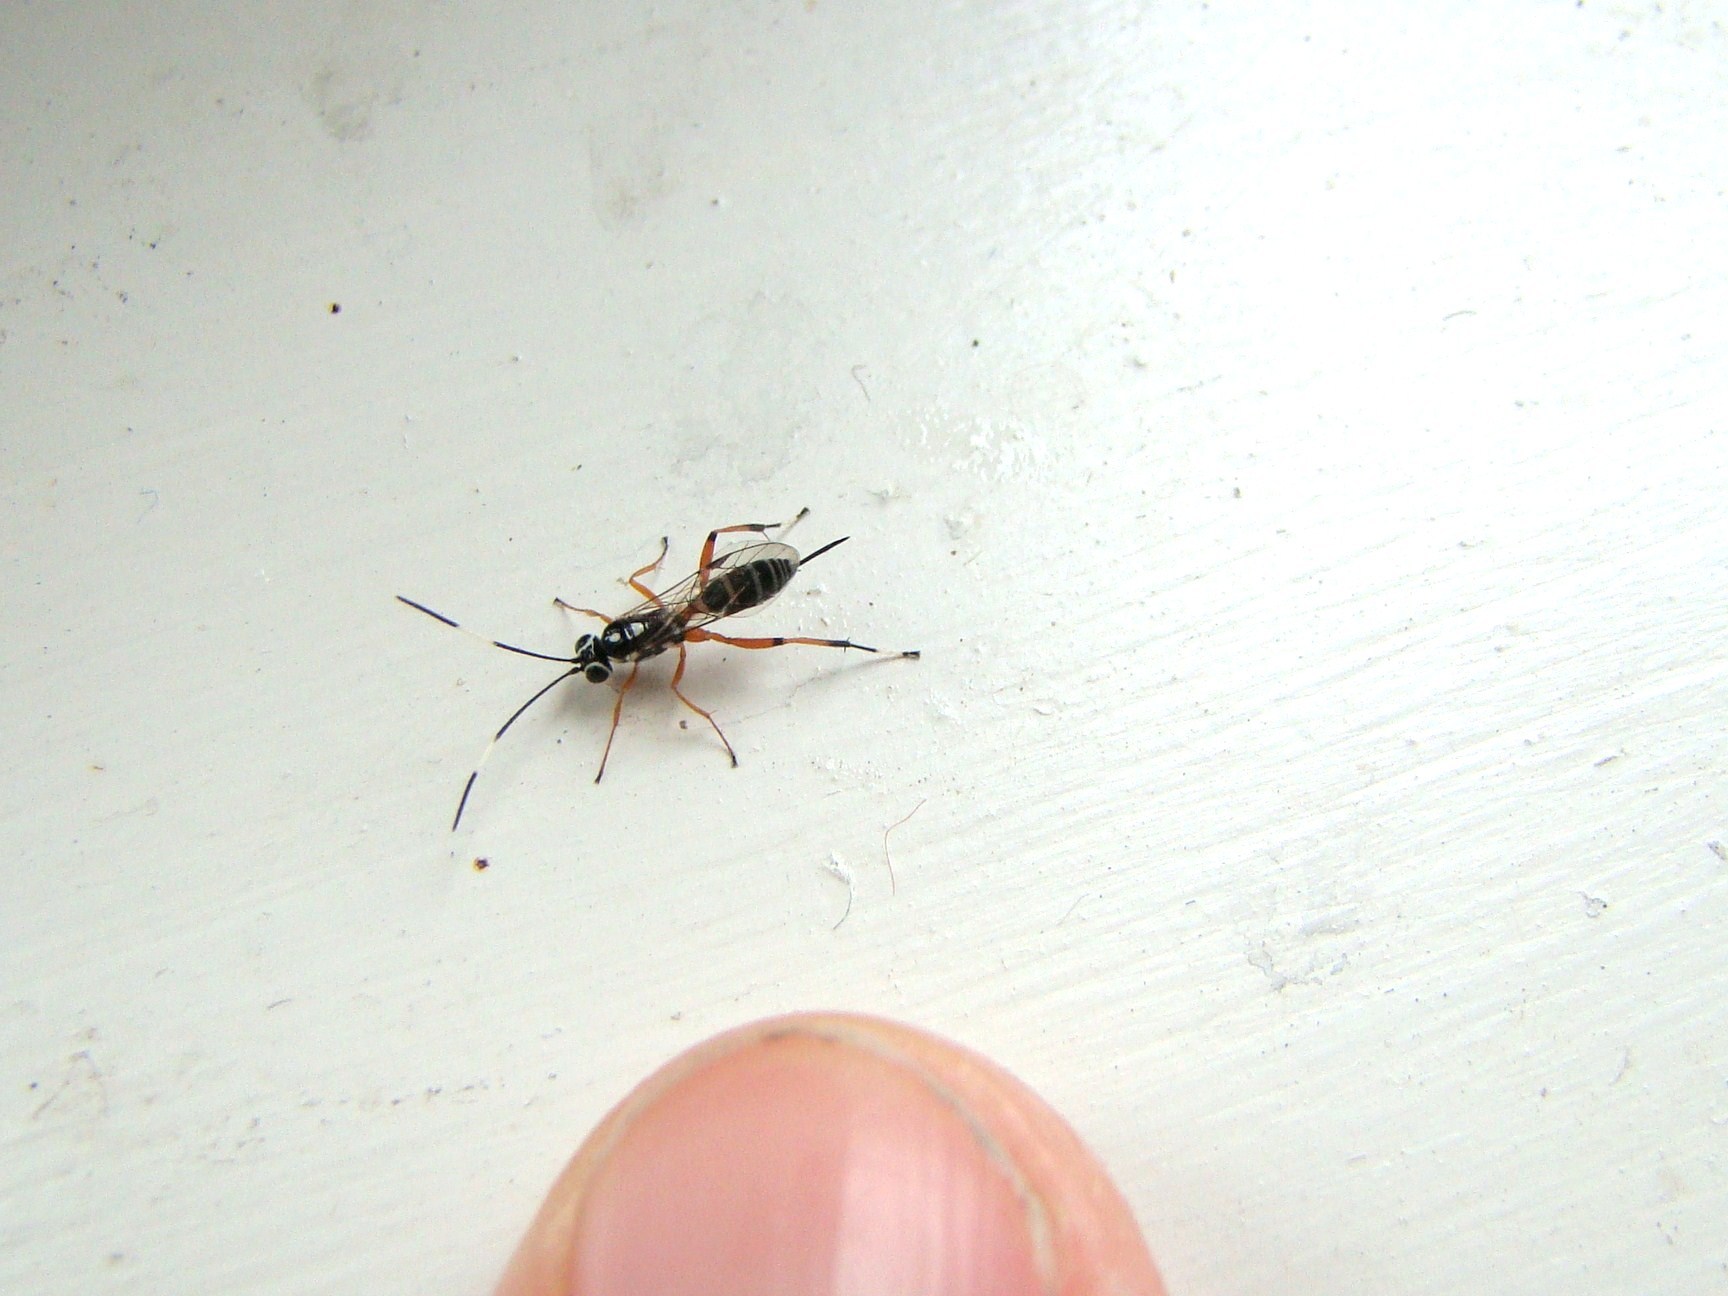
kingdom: Animalia
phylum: Arthropoda
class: Insecta
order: Hymenoptera
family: Ichneumonidae
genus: Glabridorsum
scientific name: Glabridorsum stokesii
